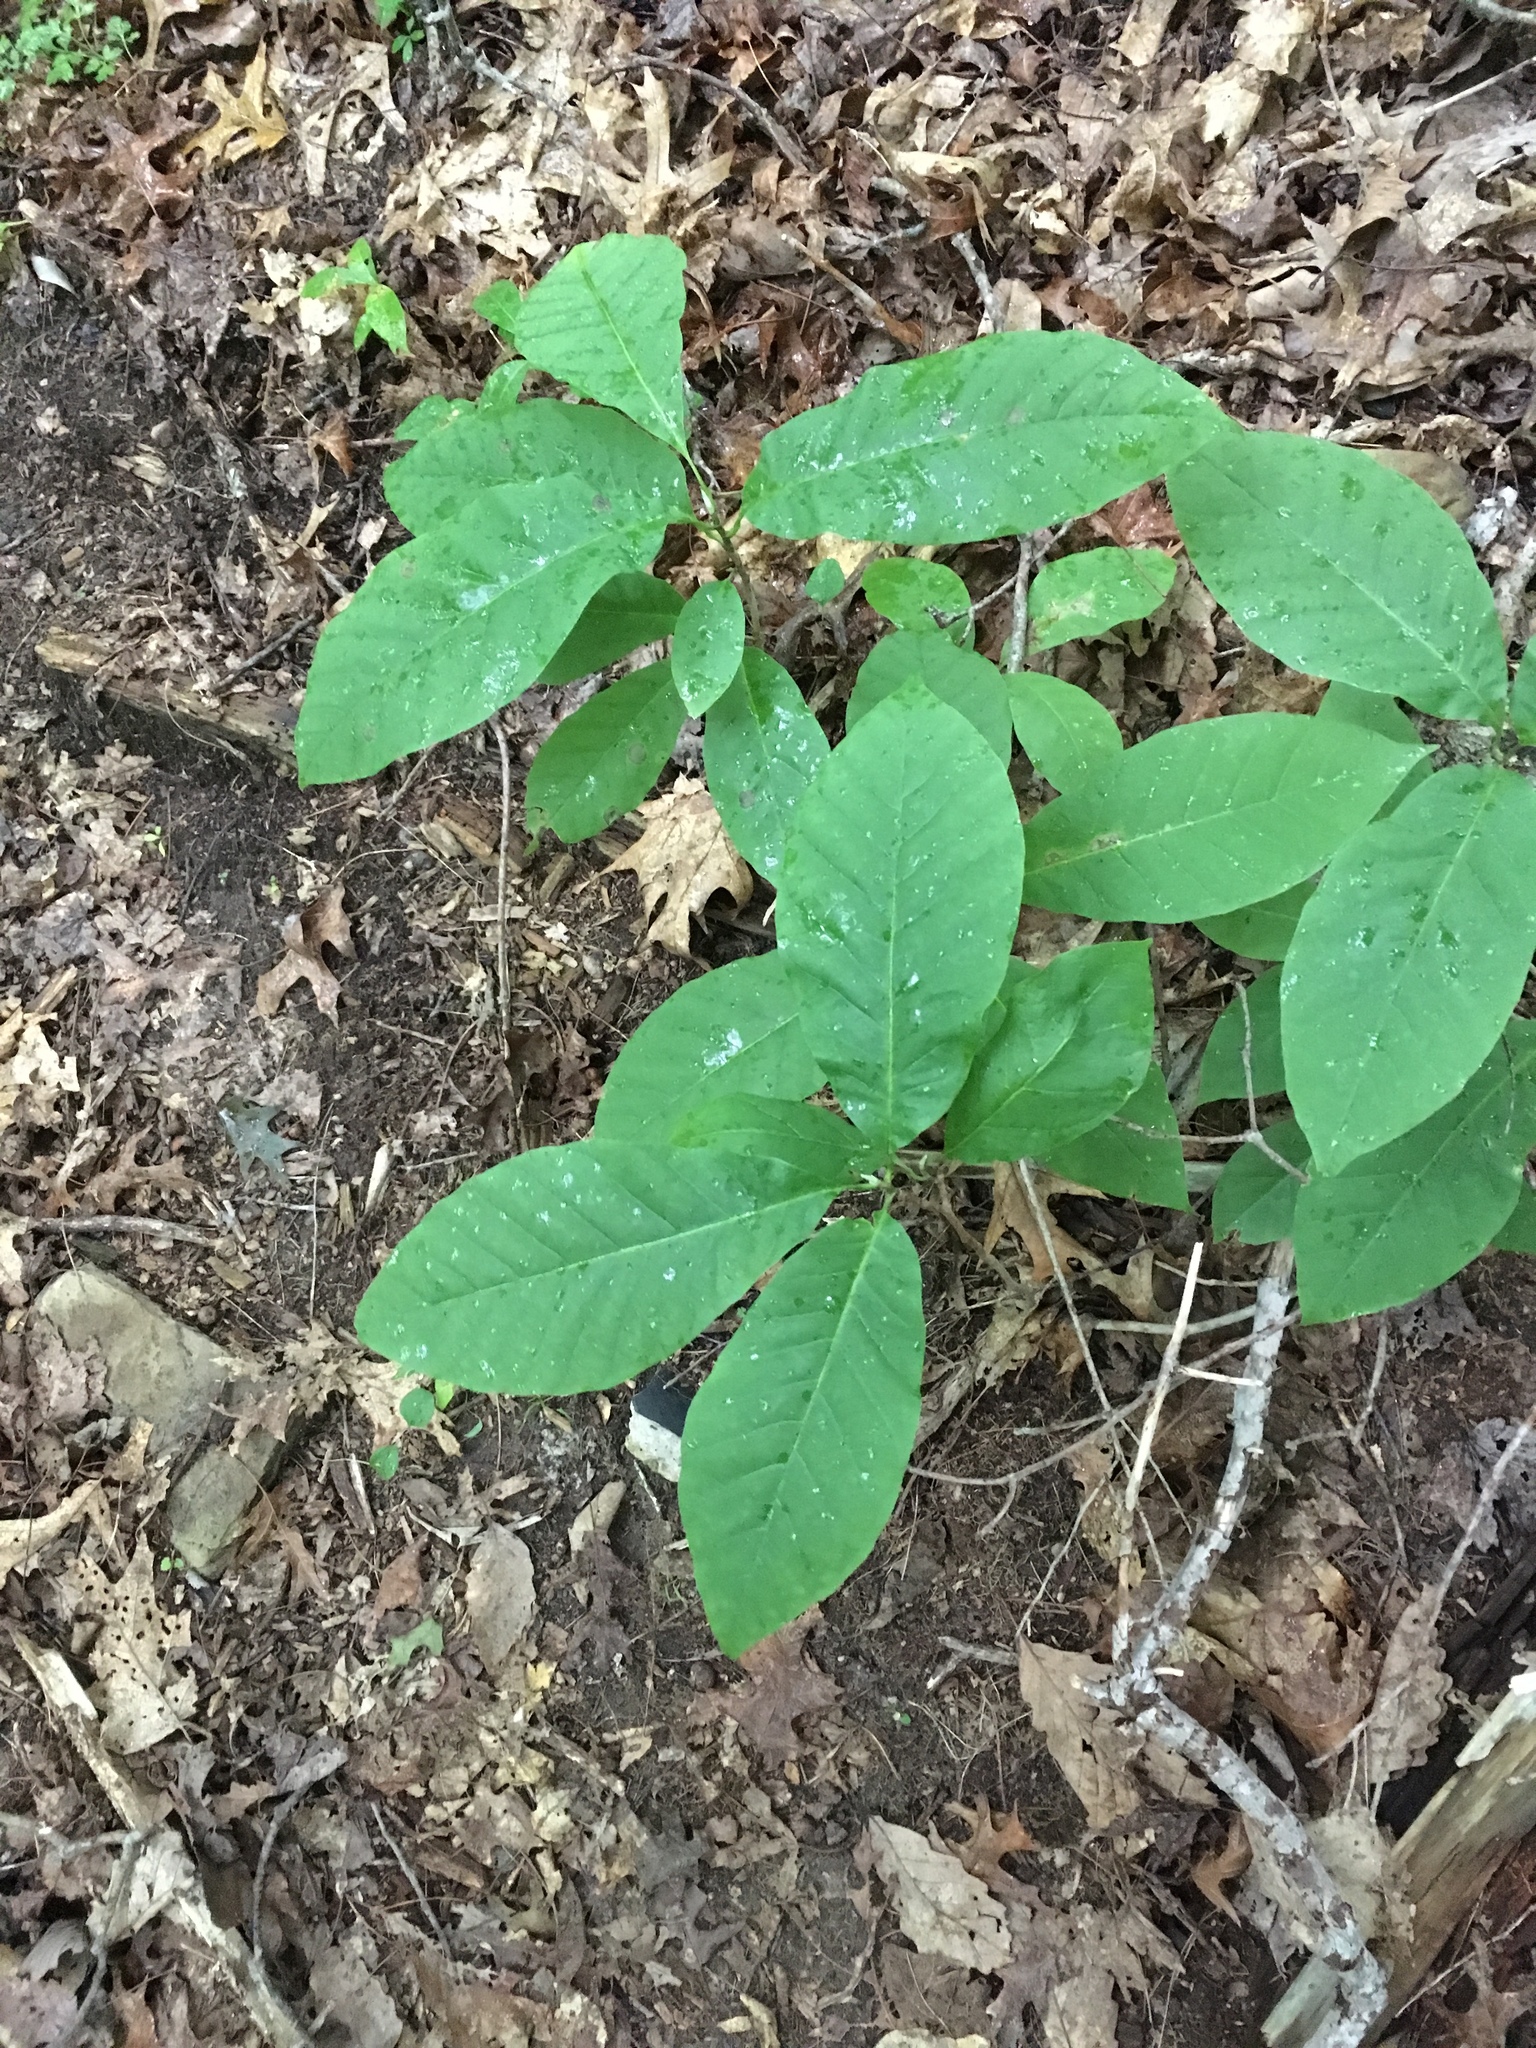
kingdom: Plantae
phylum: Tracheophyta
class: Magnoliopsida
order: Magnoliales
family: Annonaceae
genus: Asimina
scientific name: Asimina triloba
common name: Dog-banana
